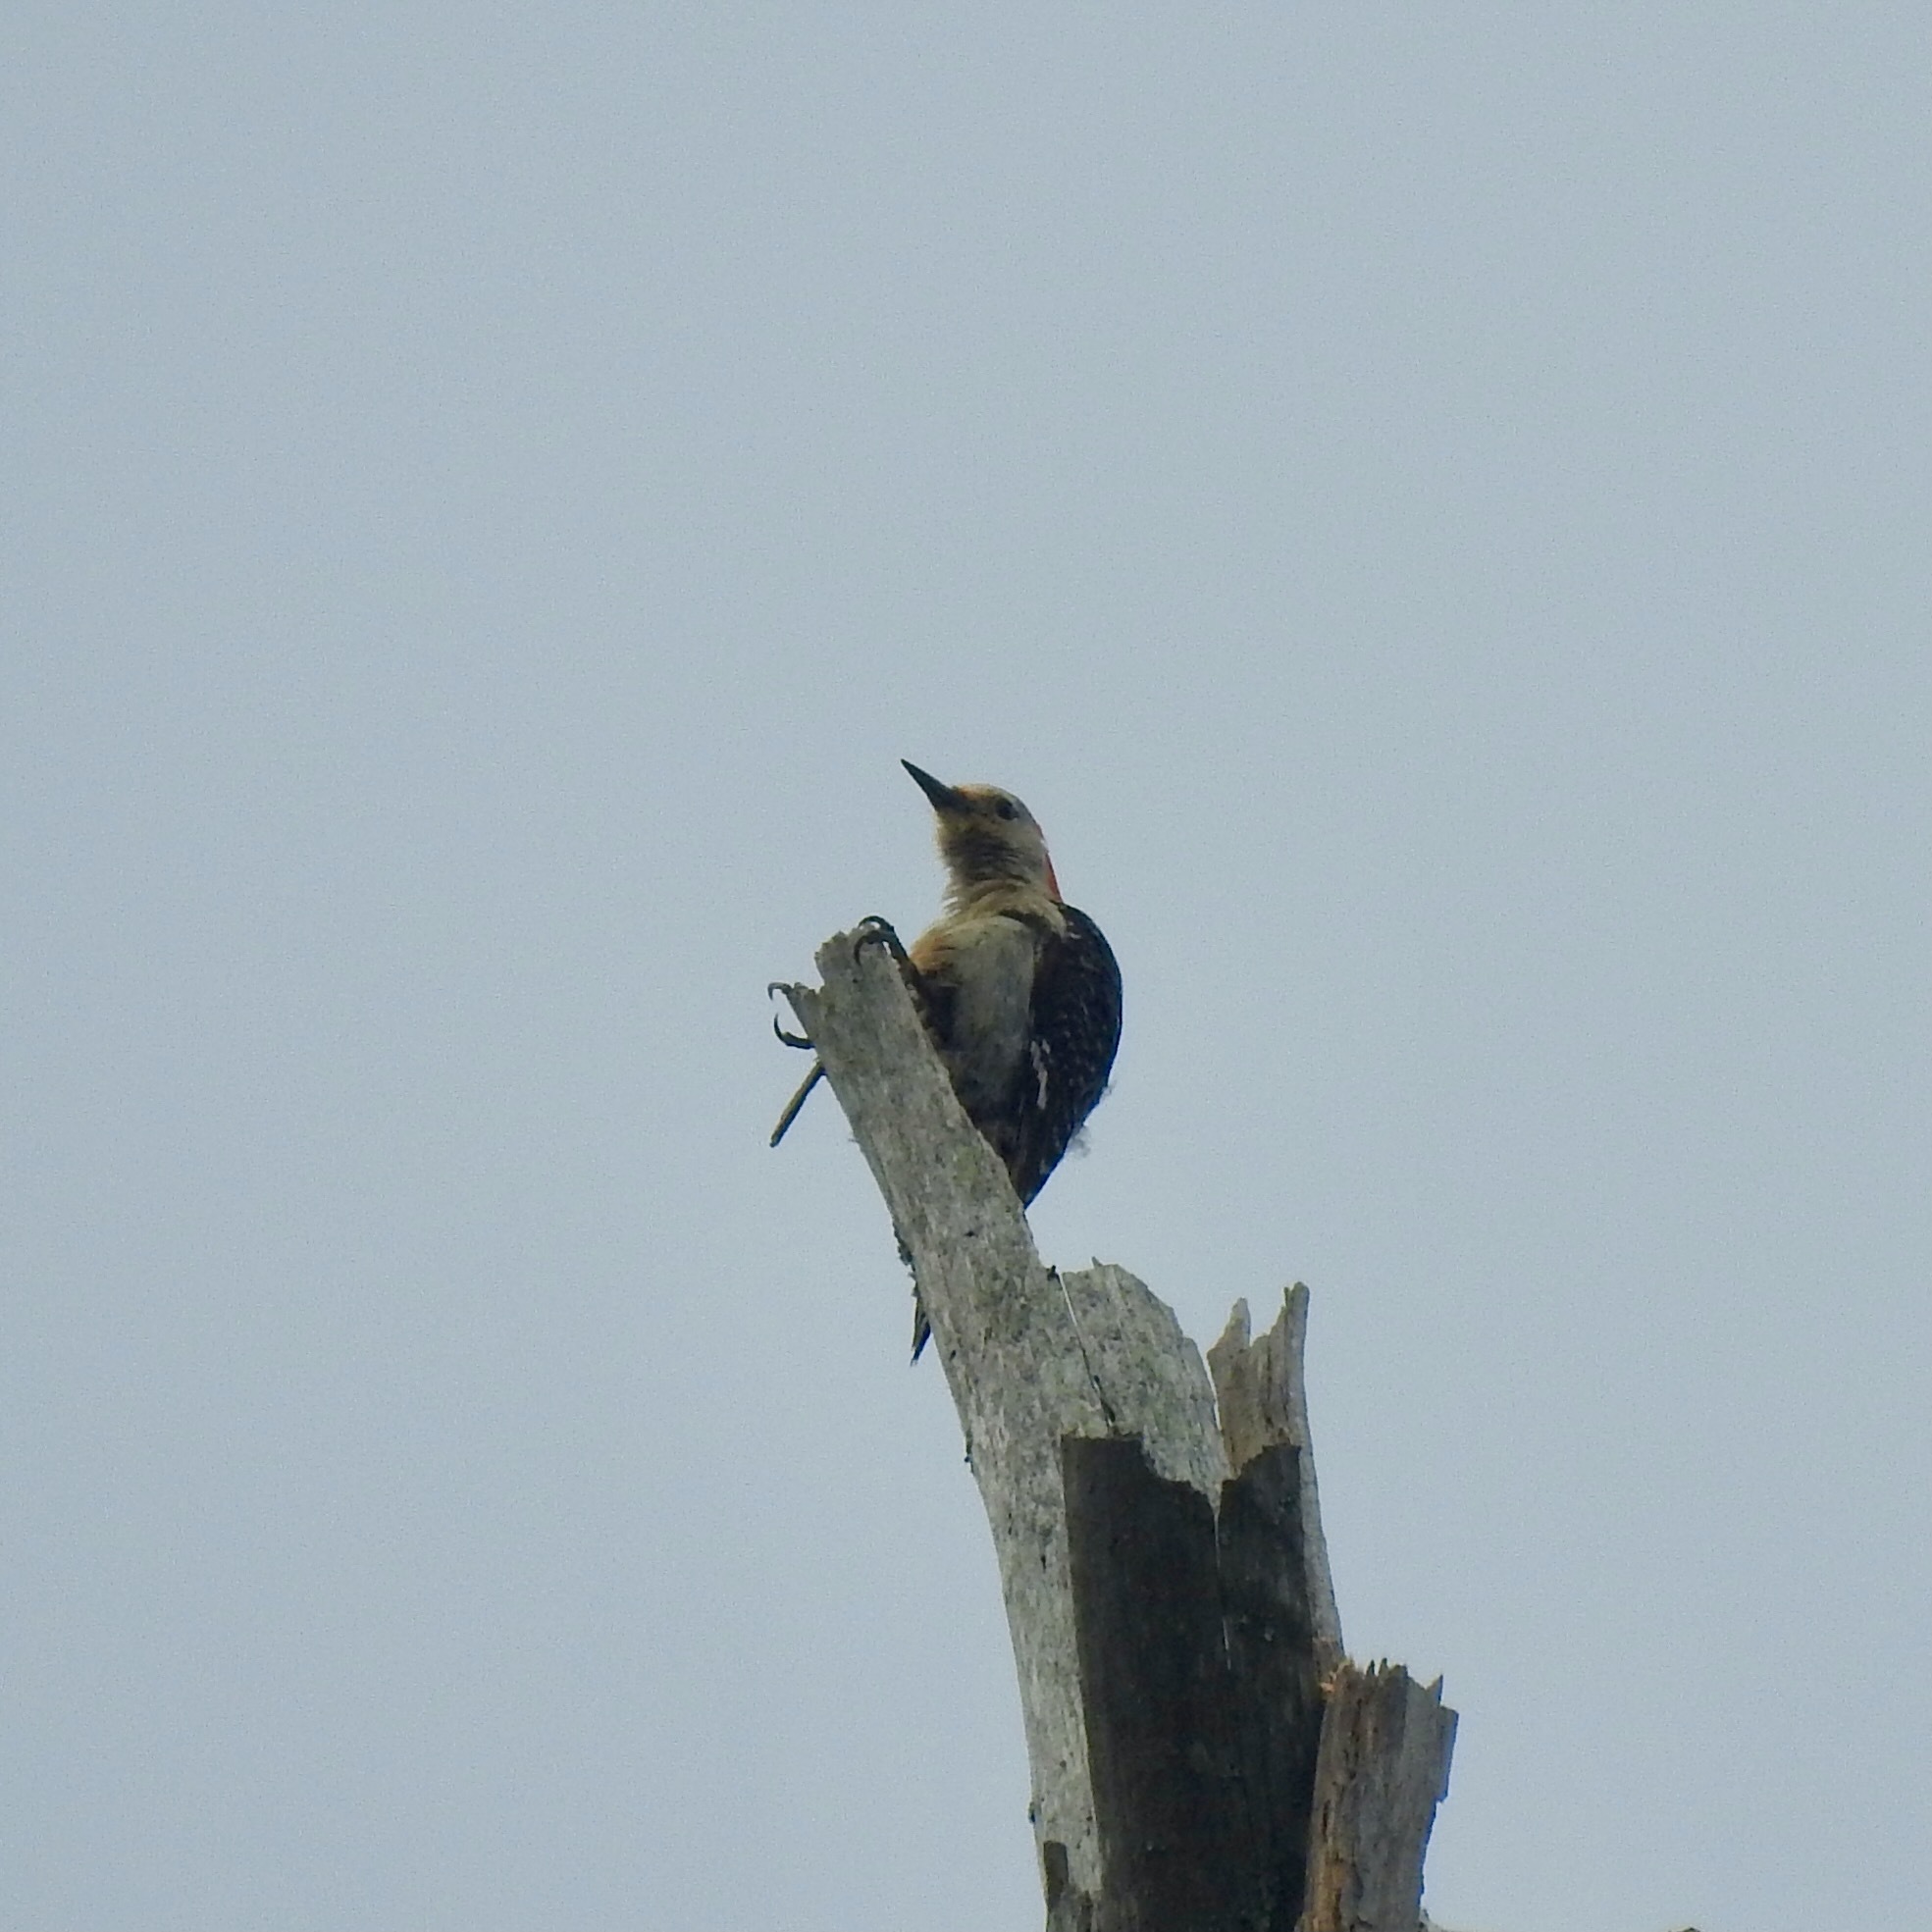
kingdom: Animalia
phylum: Chordata
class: Aves
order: Piciformes
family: Picidae
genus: Melanerpes
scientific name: Melanerpes carolinus
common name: Red-bellied woodpecker
